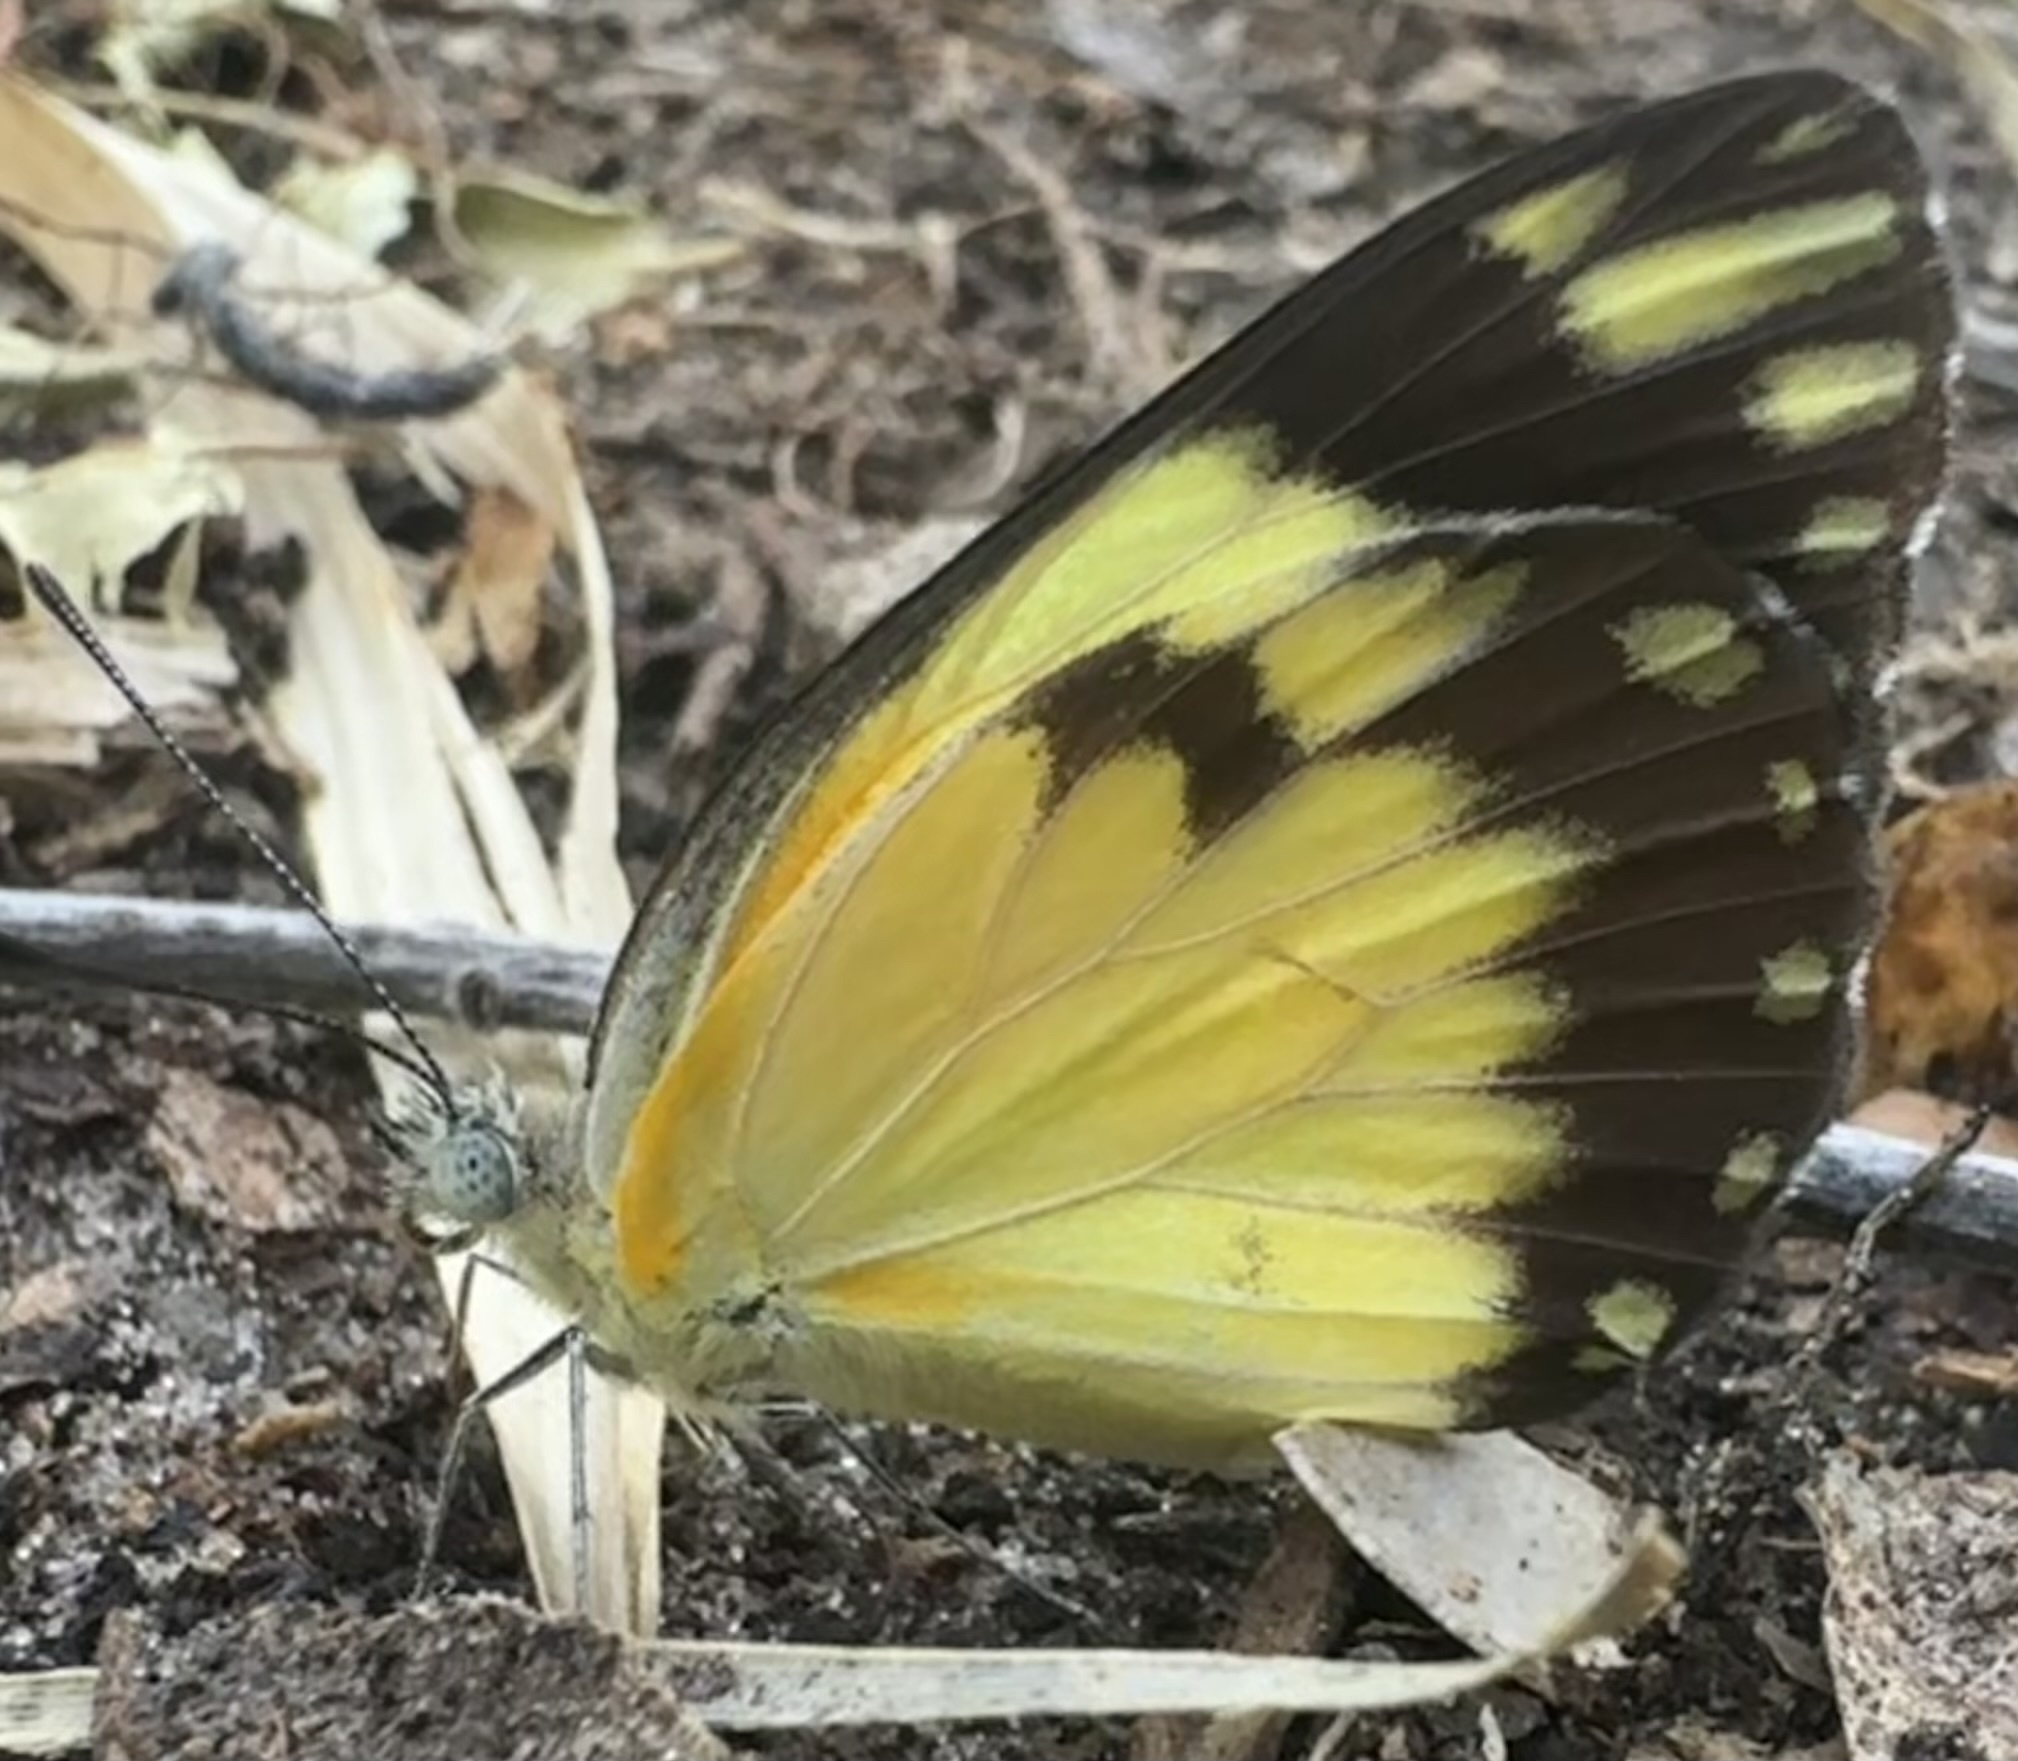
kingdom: Animalia
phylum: Arthropoda
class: Insecta
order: Lepidoptera
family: Pieridae
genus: Belenois
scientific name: Belenois creona
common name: African caper white
